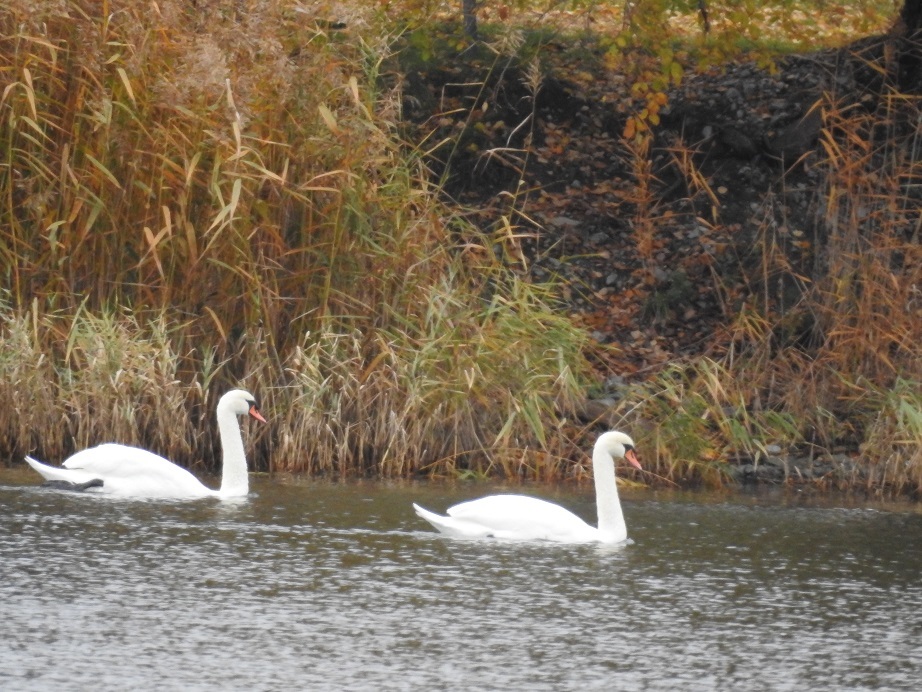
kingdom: Animalia
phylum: Chordata
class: Aves
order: Anseriformes
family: Anatidae
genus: Cygnus
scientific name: Cygnus olor
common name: Mute swan
